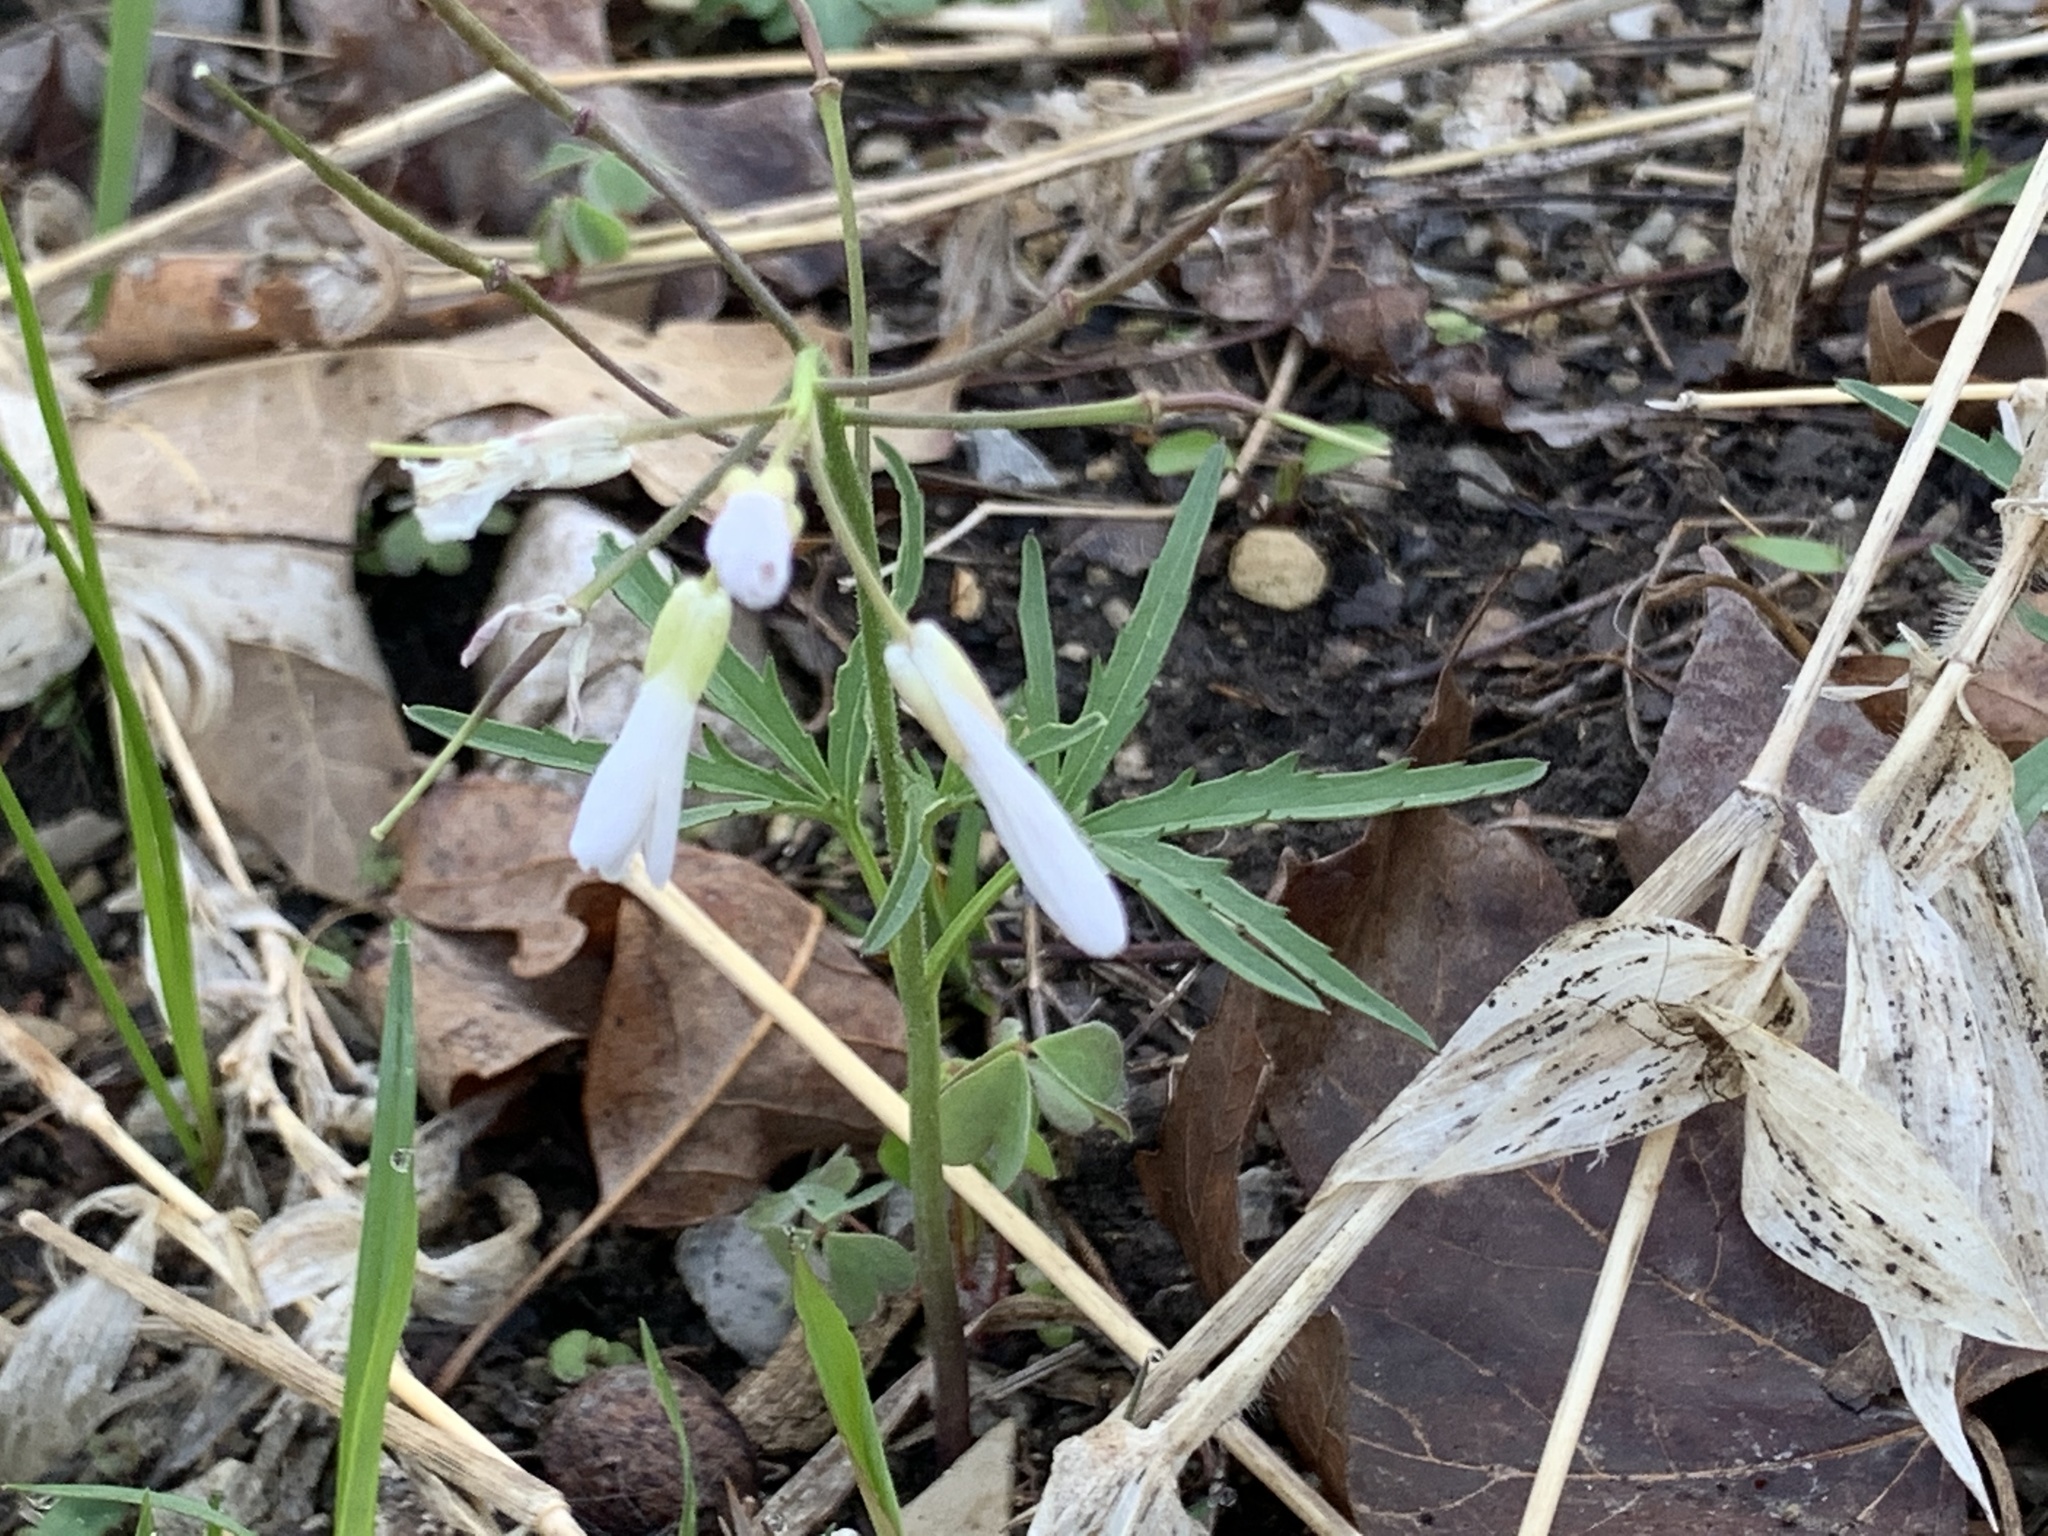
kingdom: Plantae
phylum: Tracheophyta
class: Magnoliopsida
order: Brassicales
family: Brassicaceae
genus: Cardamine
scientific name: Cardamine concatenata
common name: Cut-leaf toothcup
